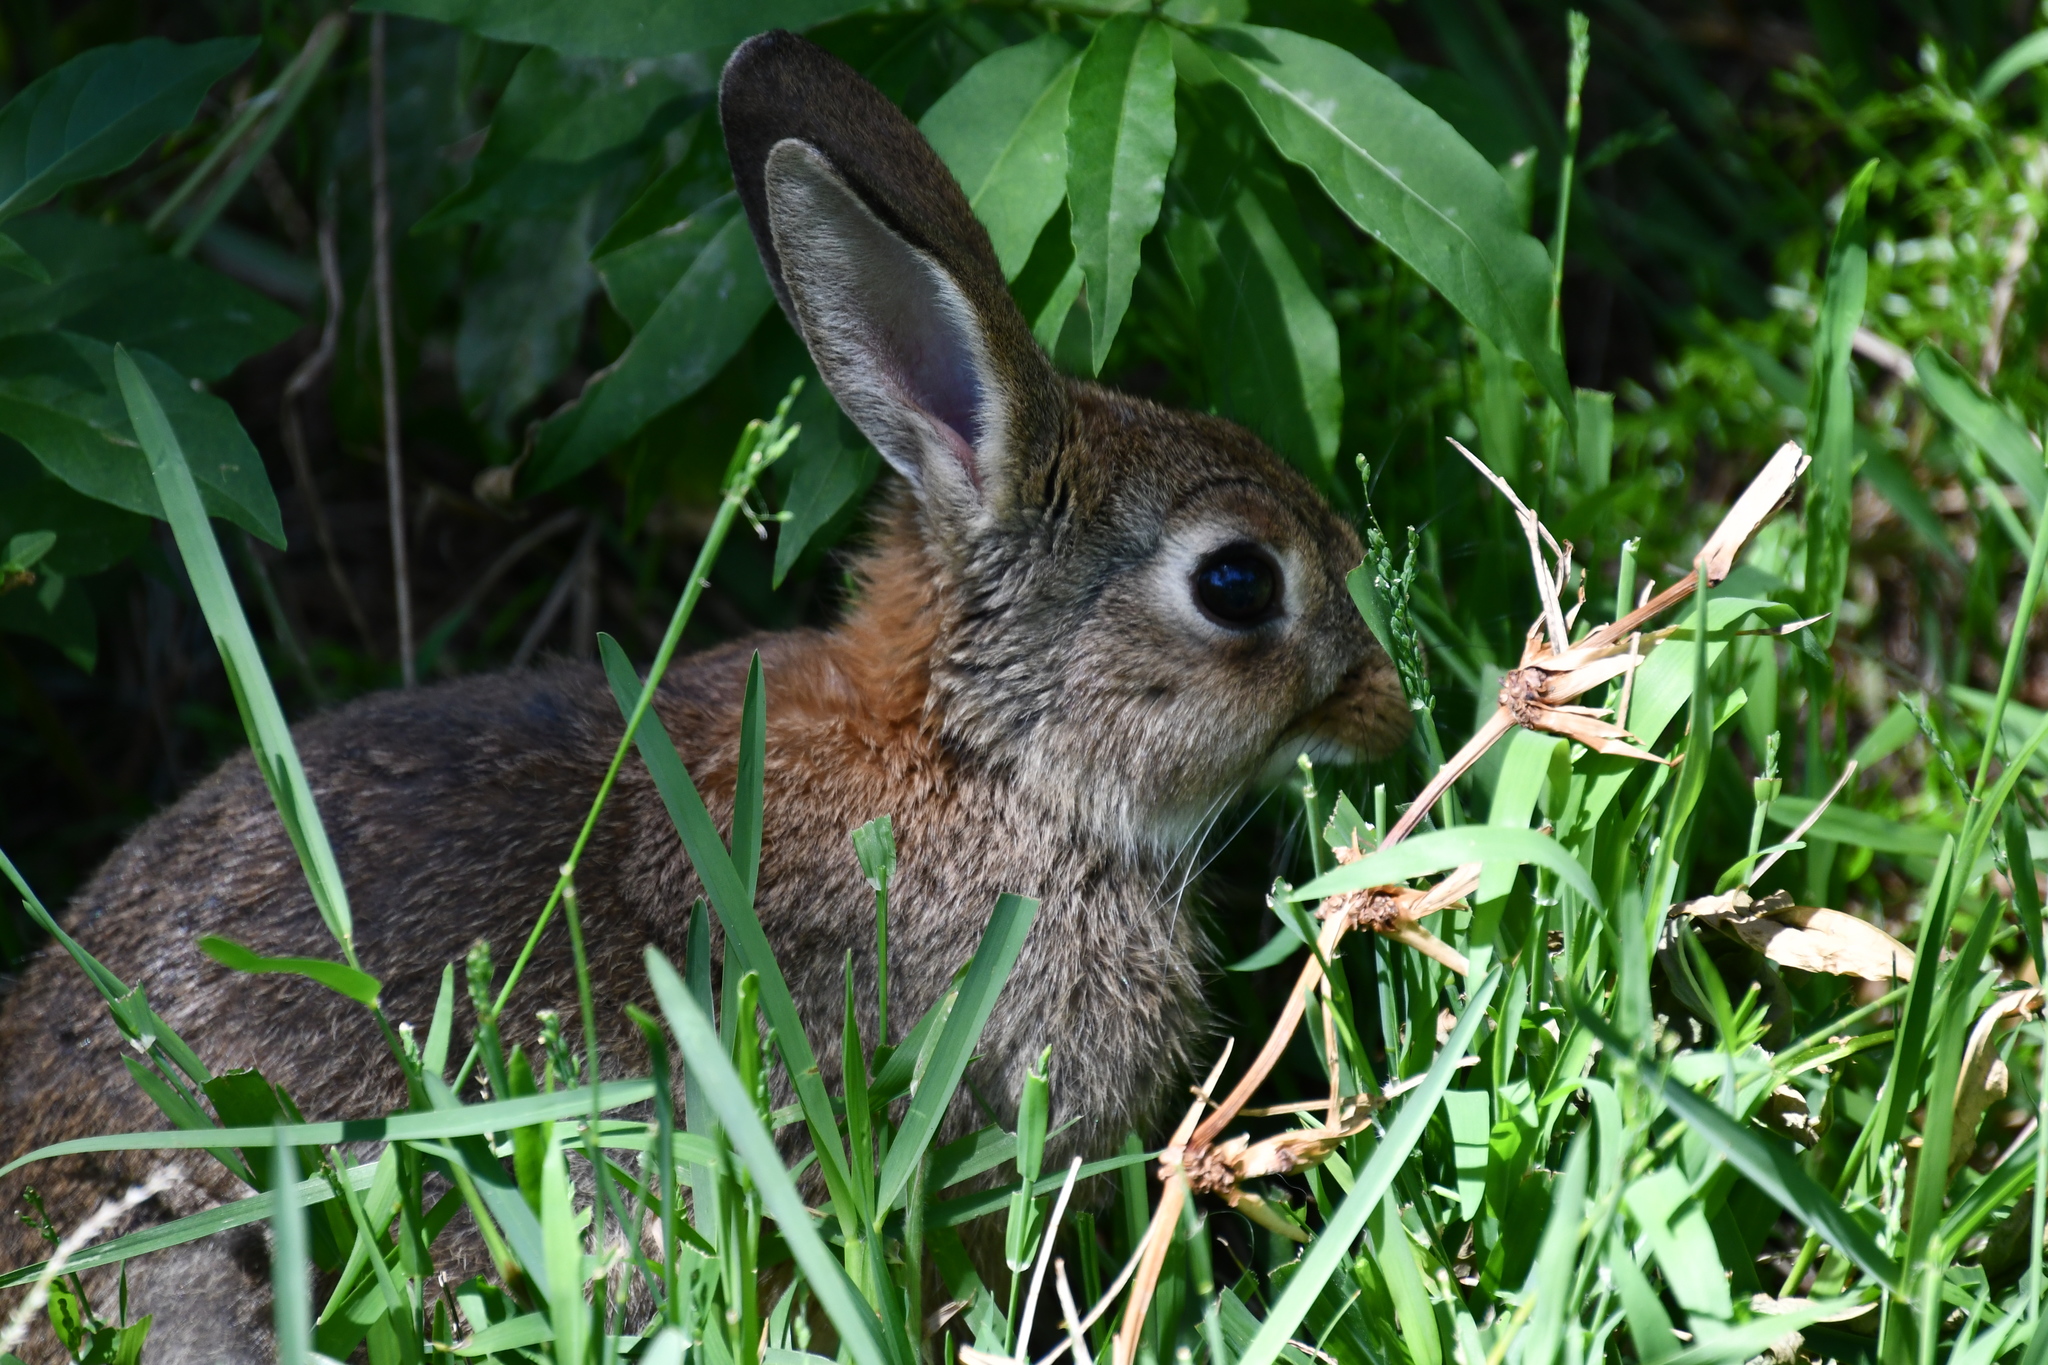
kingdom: Animalia
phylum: Chordata
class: Mammalia
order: Lagomorpha
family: Leporidae
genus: Oryctolagus
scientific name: Oryctolagus cuniculus
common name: European rabbit
